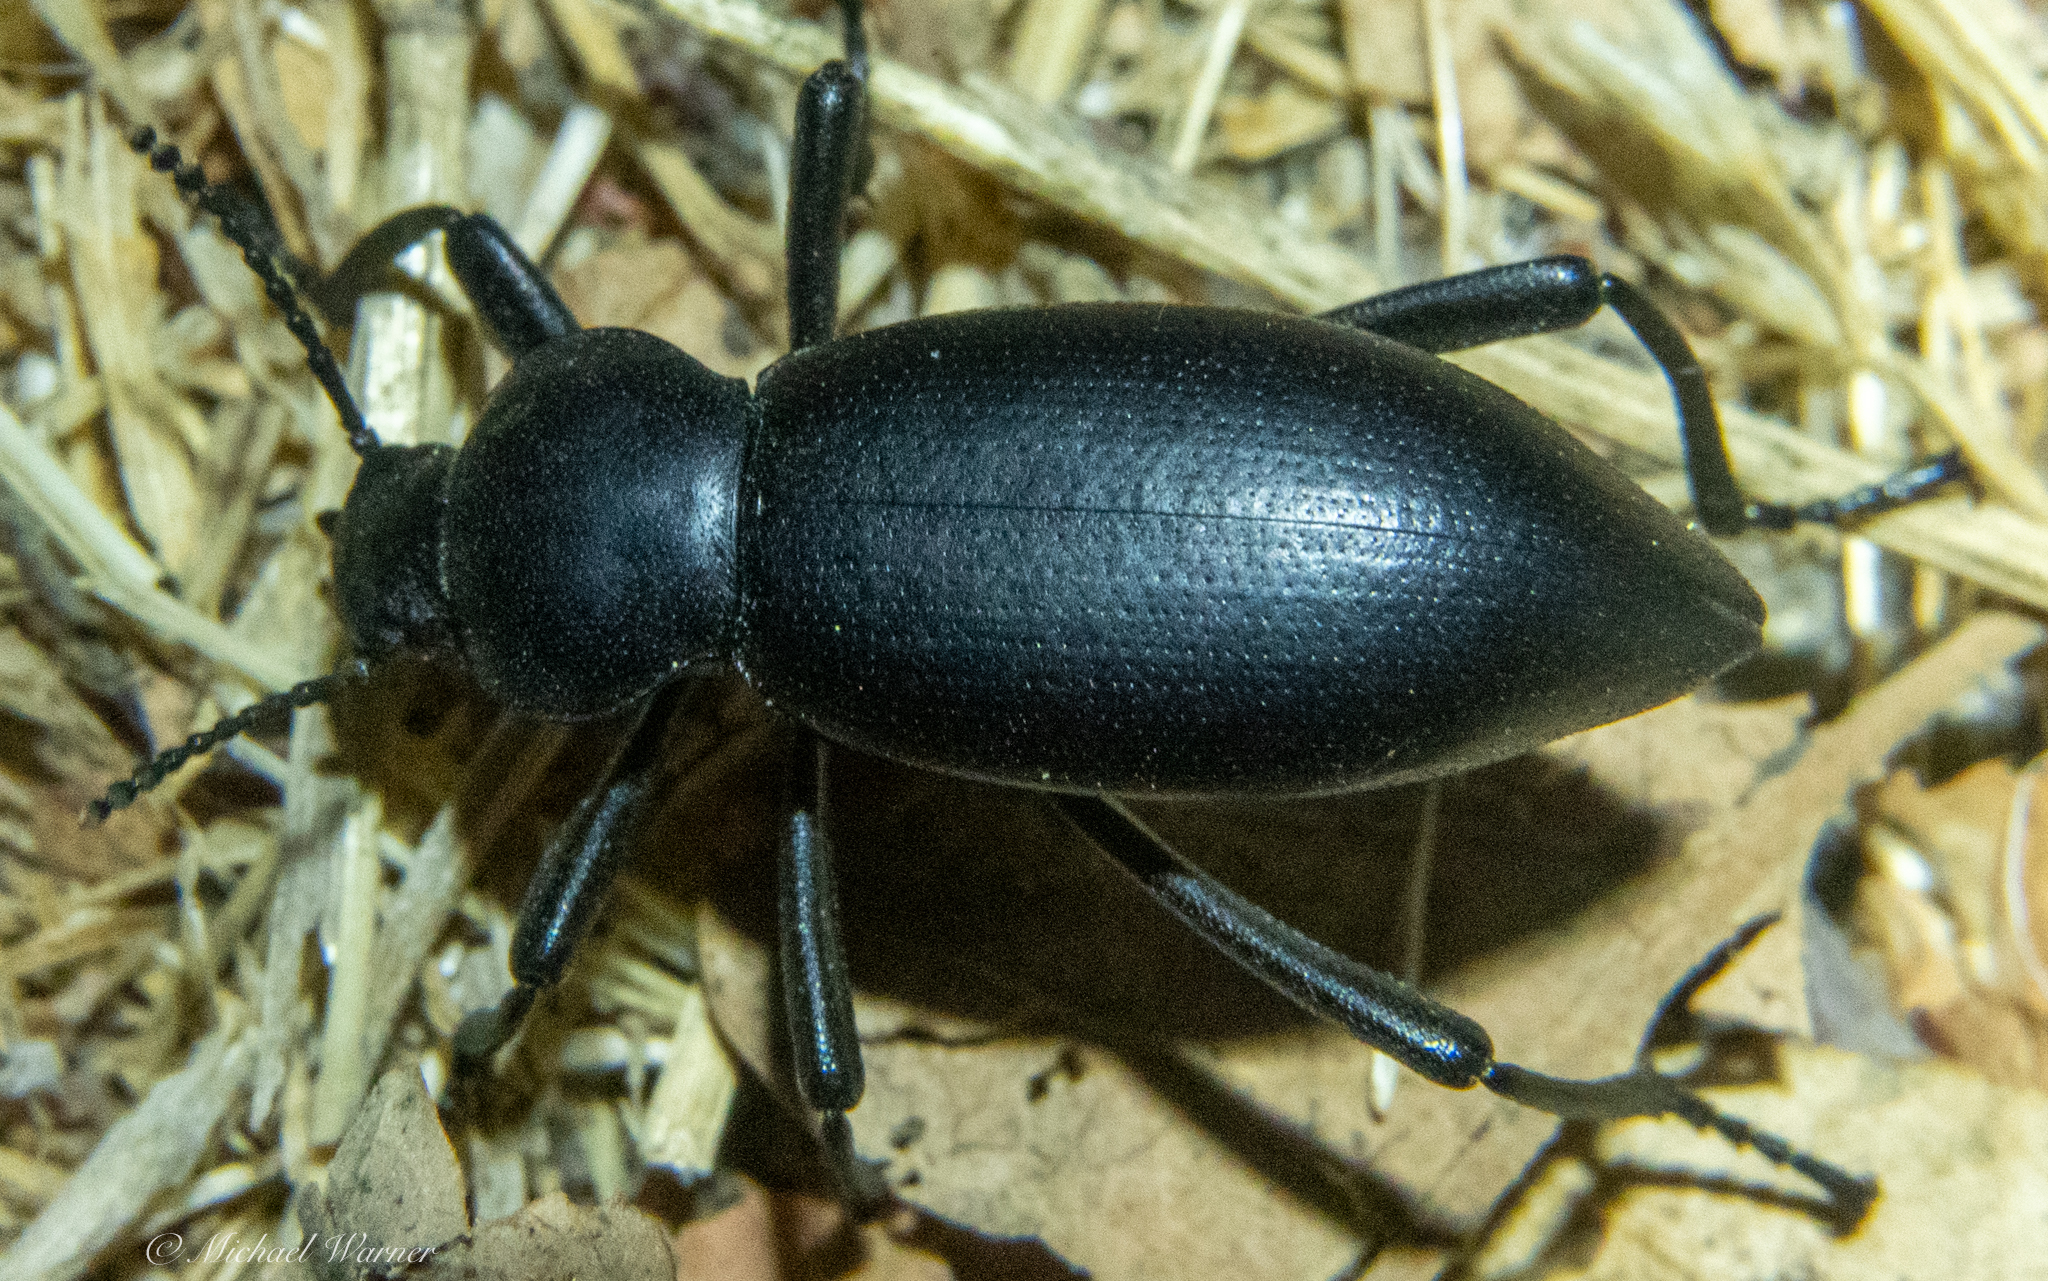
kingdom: Animalia
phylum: Arthropoda
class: Insecta
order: Coleoptera
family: Tenebrionidae
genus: Eleodes
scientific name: Eleodes dentipes
